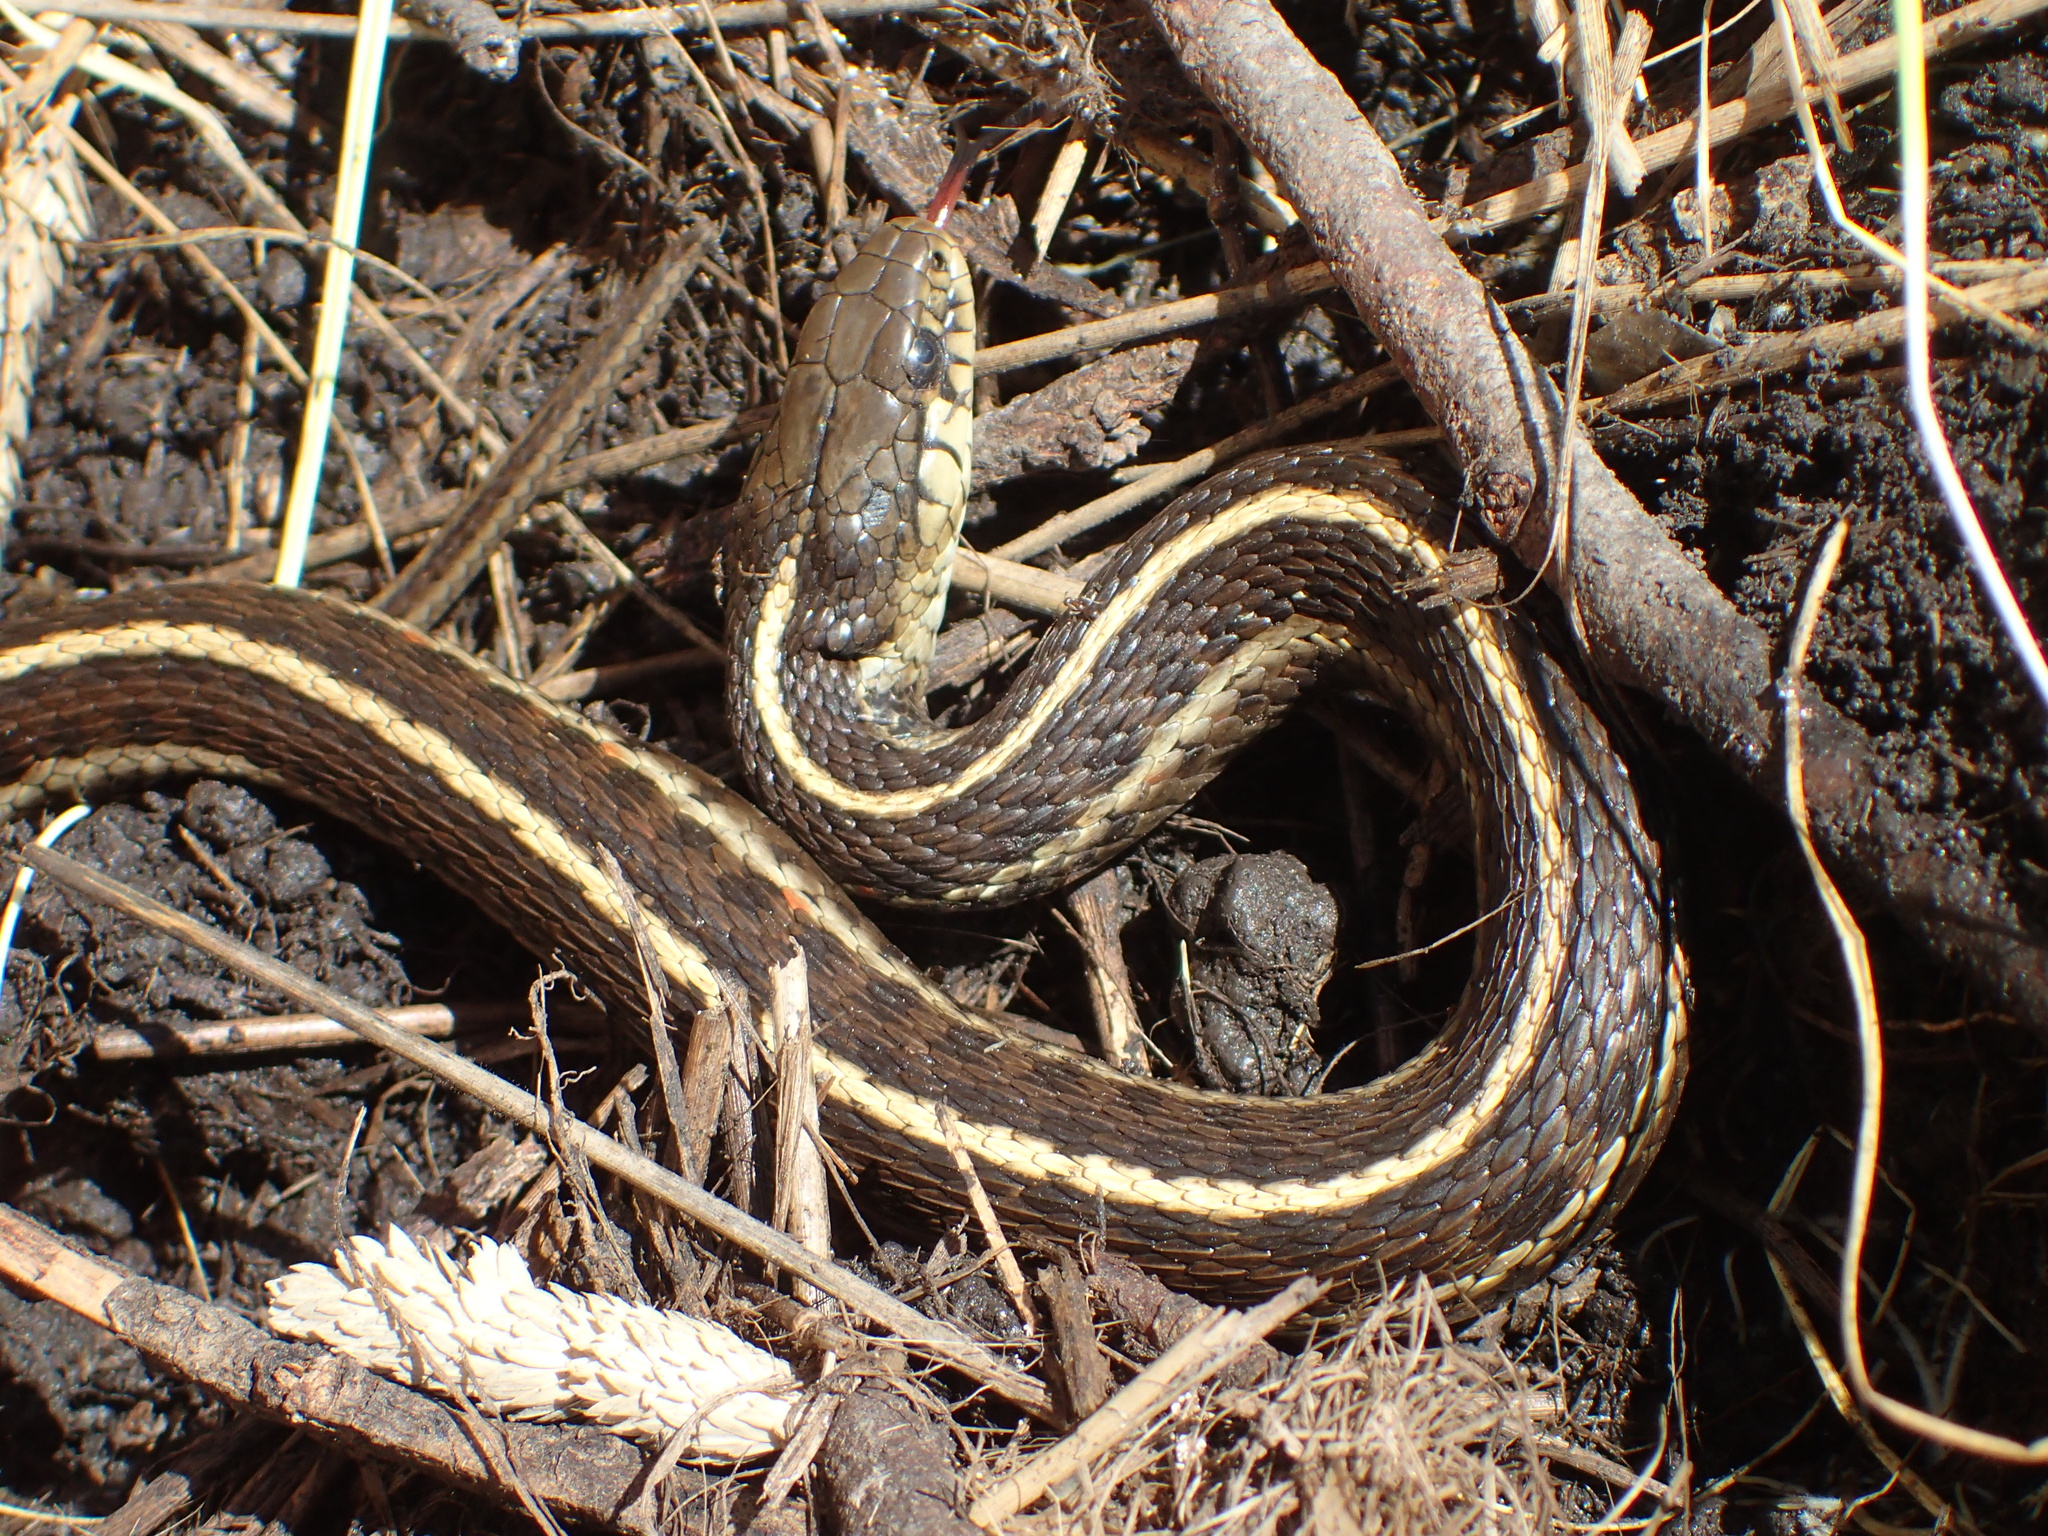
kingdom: Animalia
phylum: Chordata
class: Squamata
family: Colubridae
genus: Thamnophis
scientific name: Thamnophis elegans
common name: Western terrestrial garter snake
